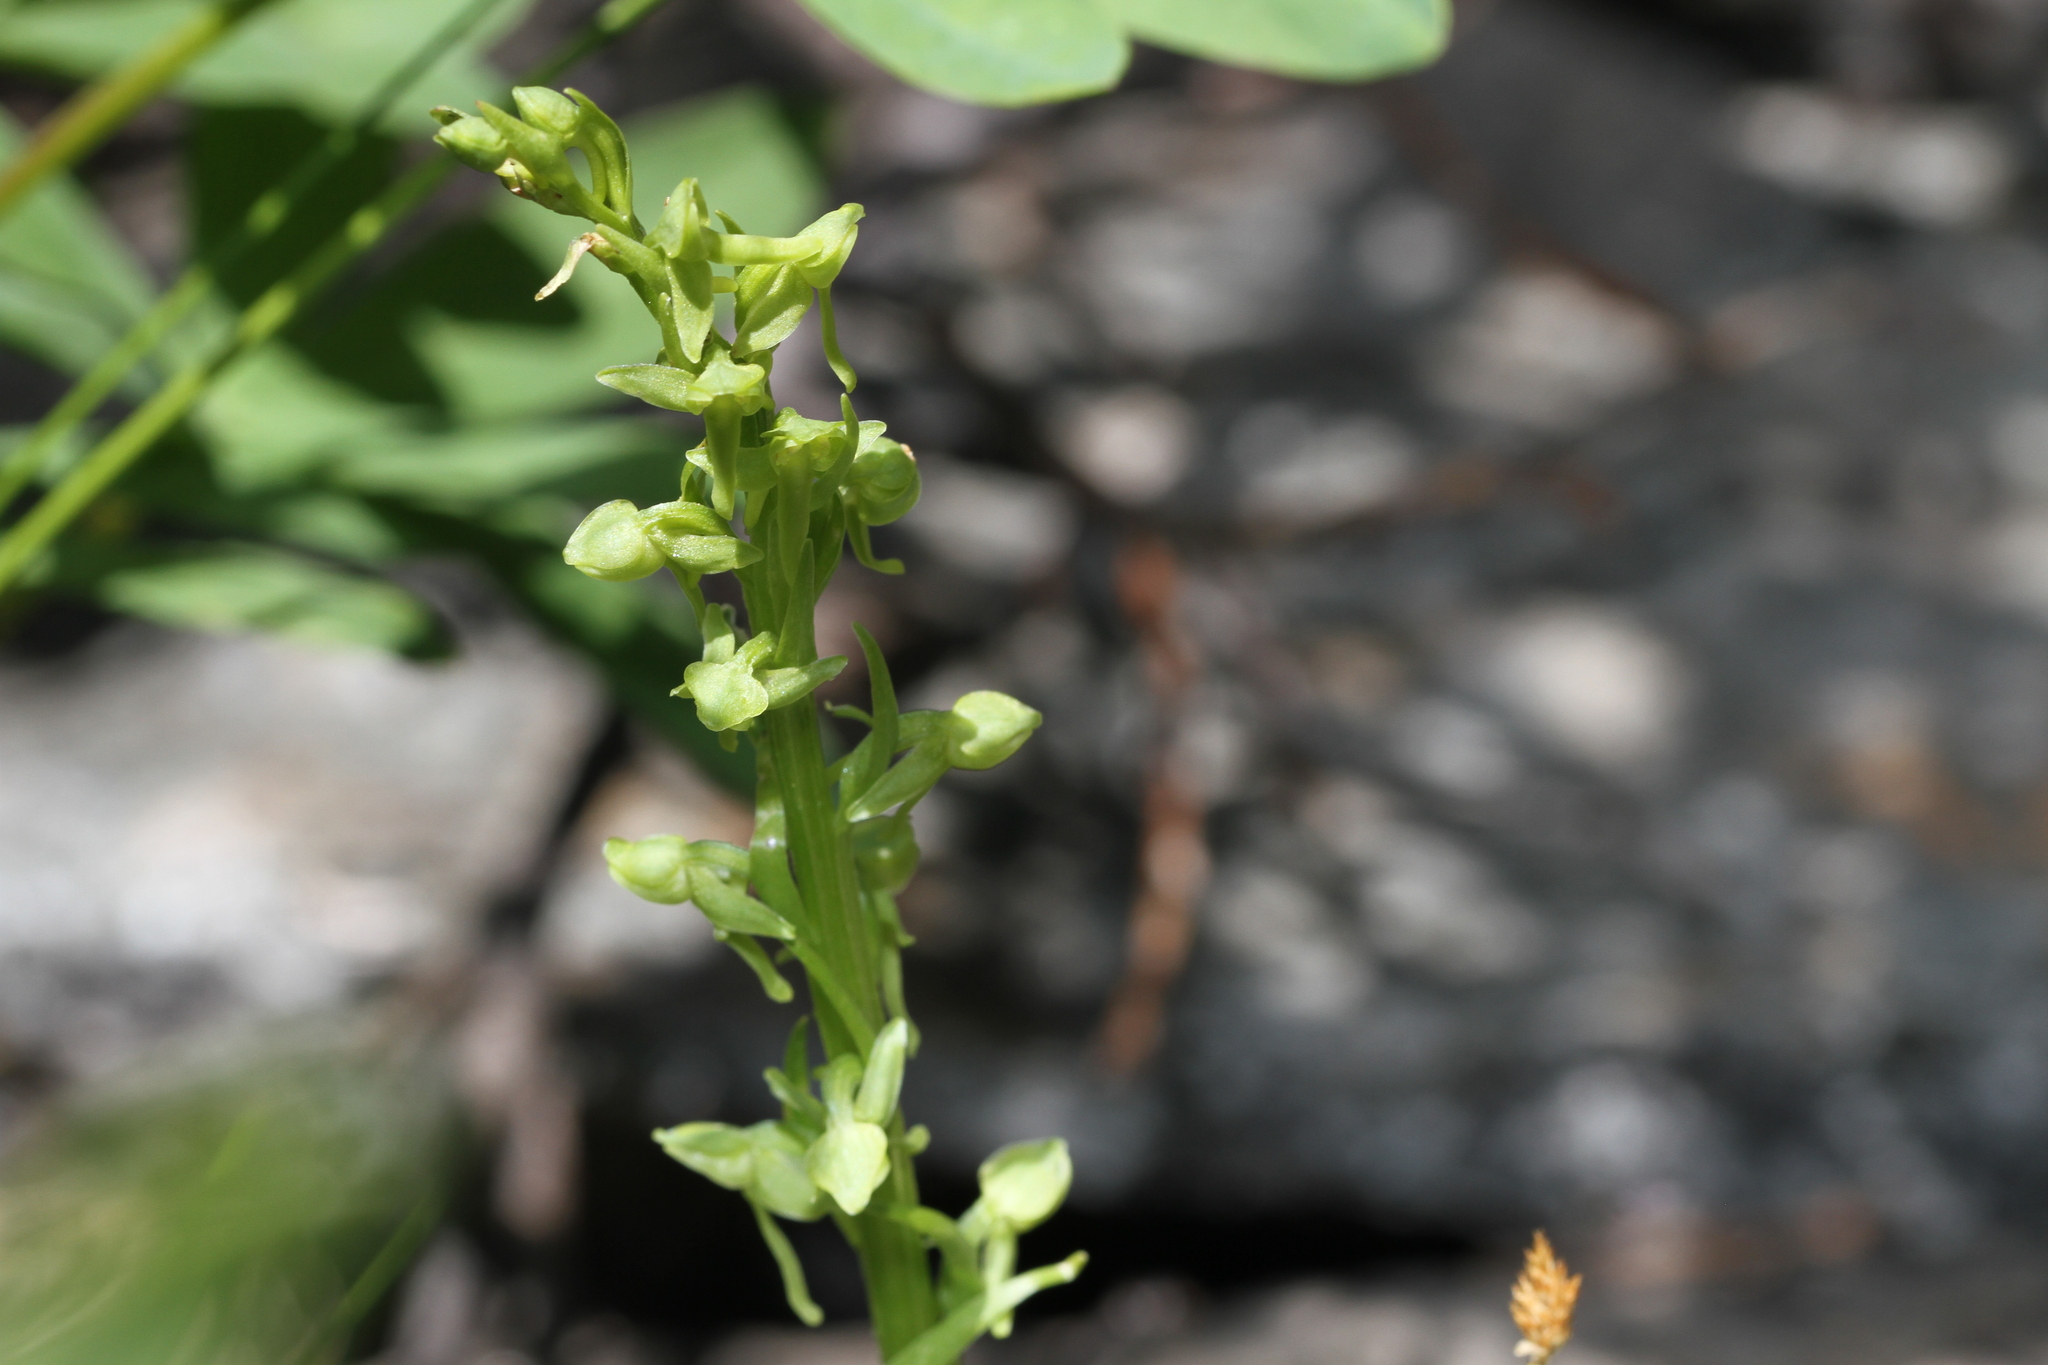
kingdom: Plantae
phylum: Tracheophyta
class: Liliopsida
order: Asparagales
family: Orchidaceae
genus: Platanthera
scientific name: Platanthera sparsiflora
